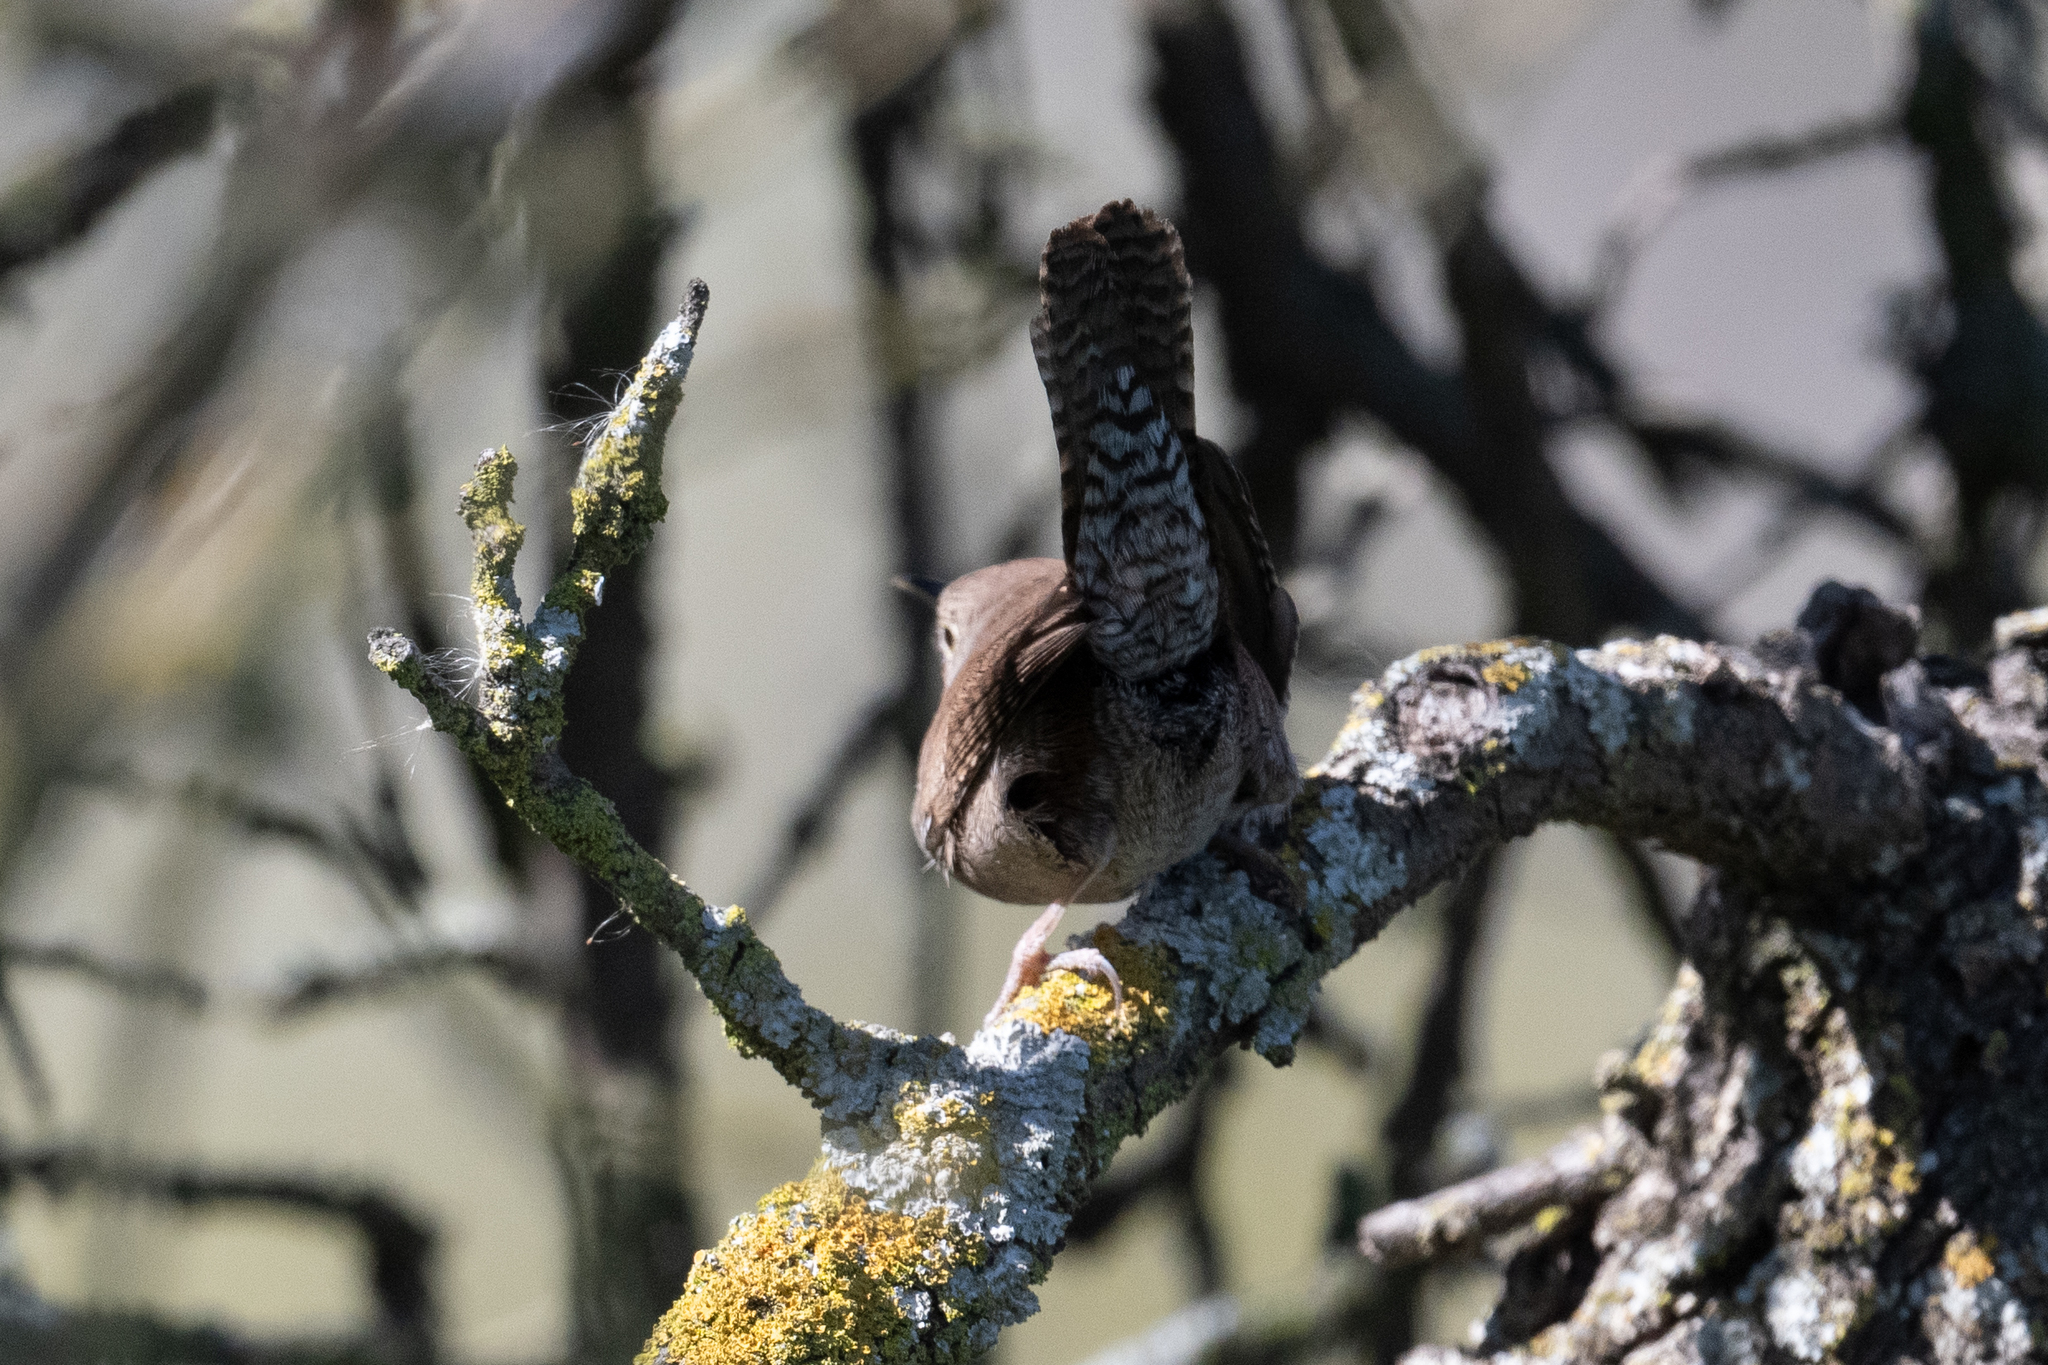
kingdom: Animalia
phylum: Chordata
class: Aves
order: Passeriformes
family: Troglodytidae
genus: Troglodytes
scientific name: Troglodytes aedon
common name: House wren
